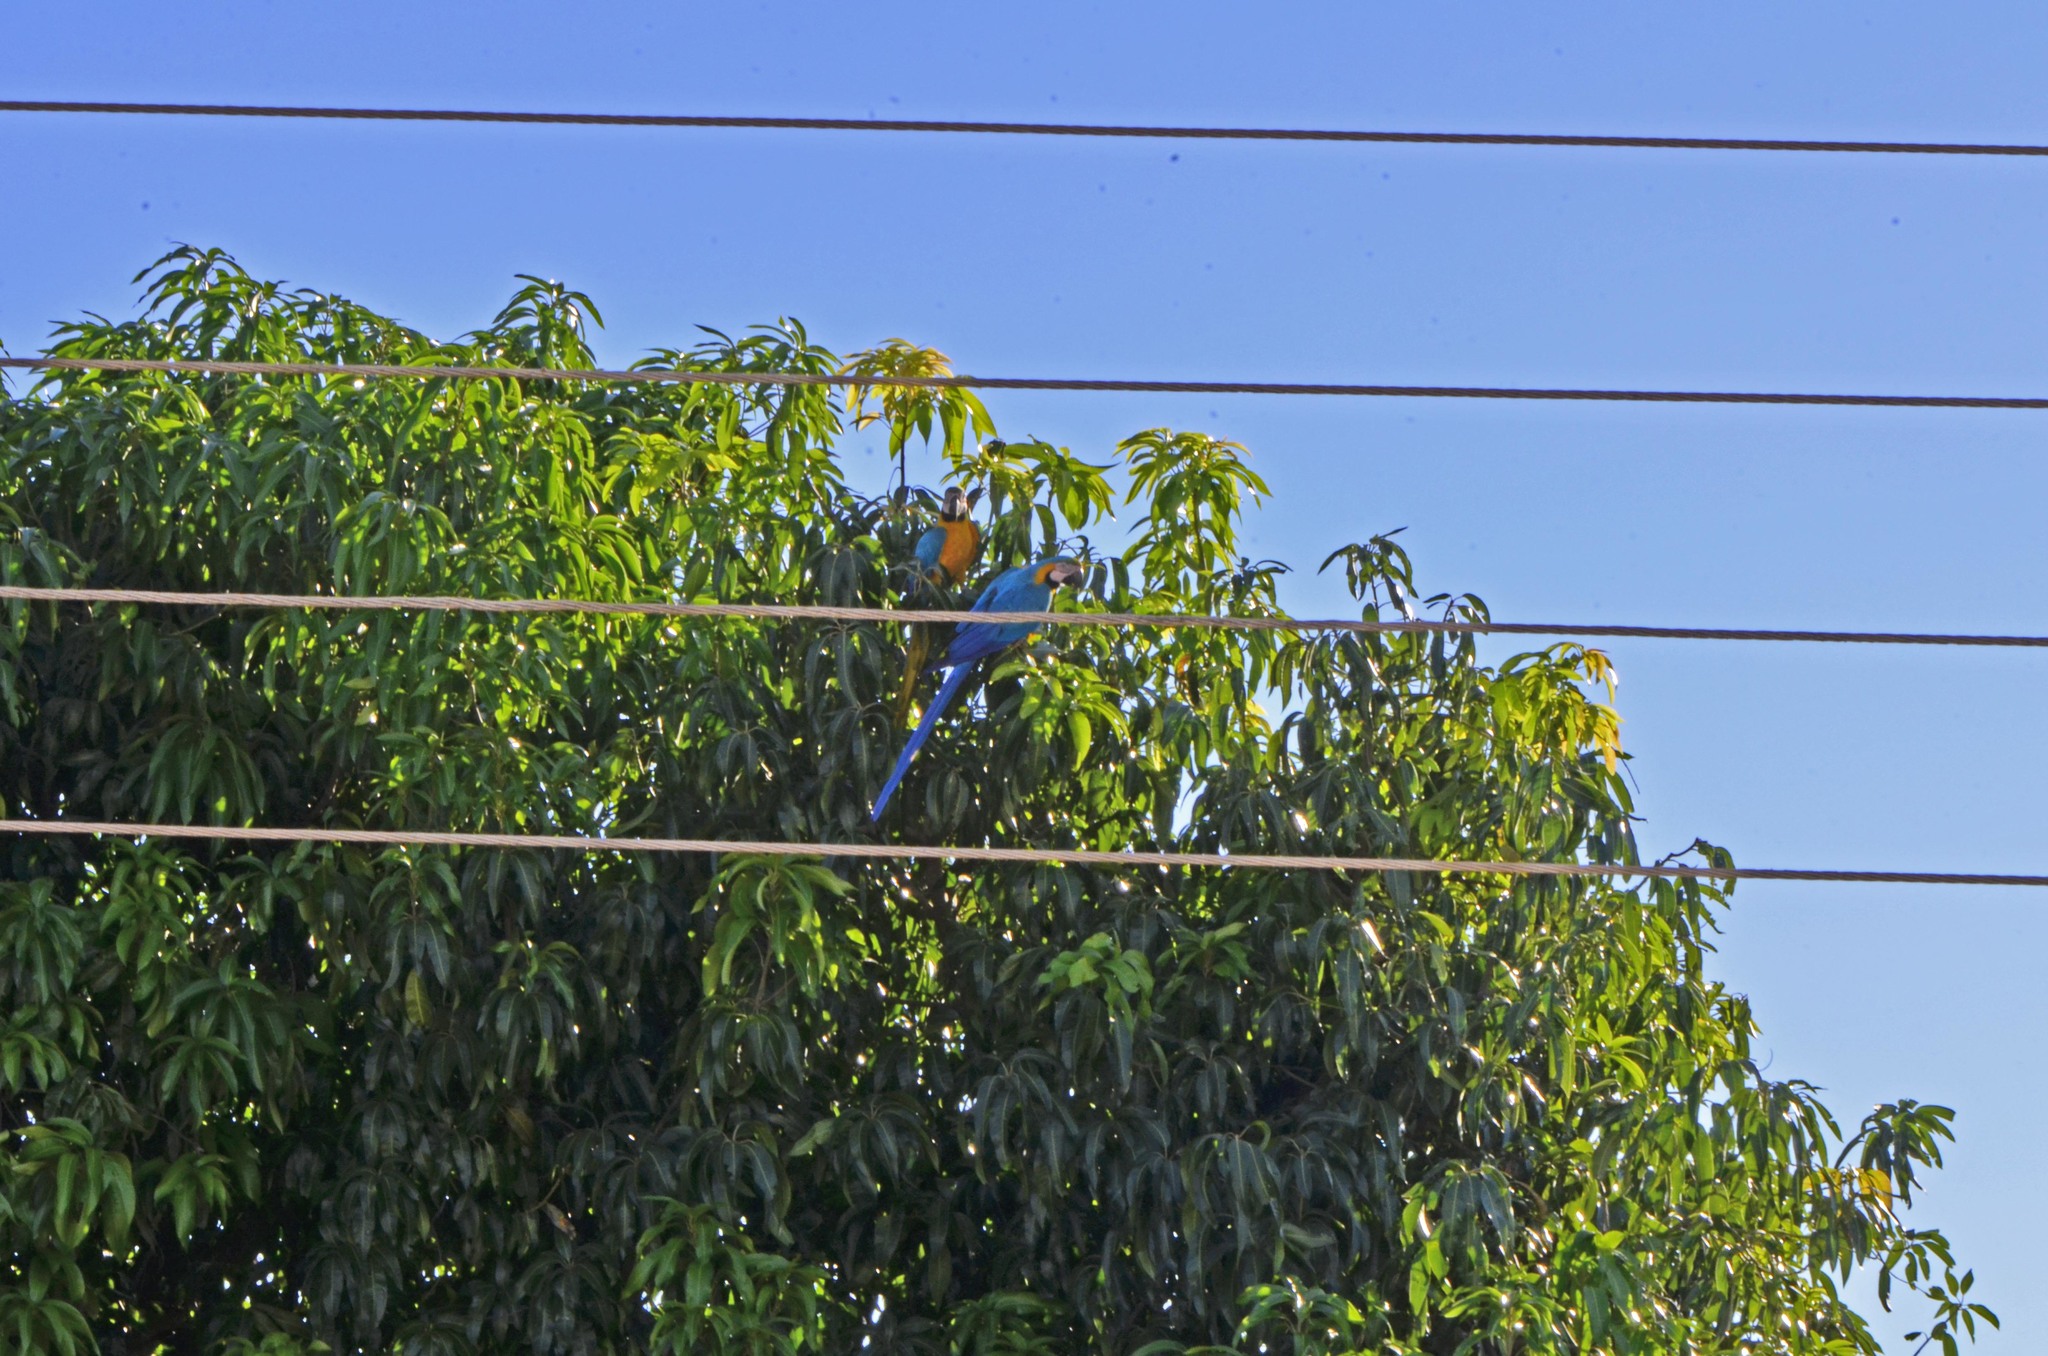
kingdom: Animalia
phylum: Chordata
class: Aves
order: Psittaciformes
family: Psittacidae
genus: Ara
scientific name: Ara ararauna
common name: Blue-and-yellow macaw
